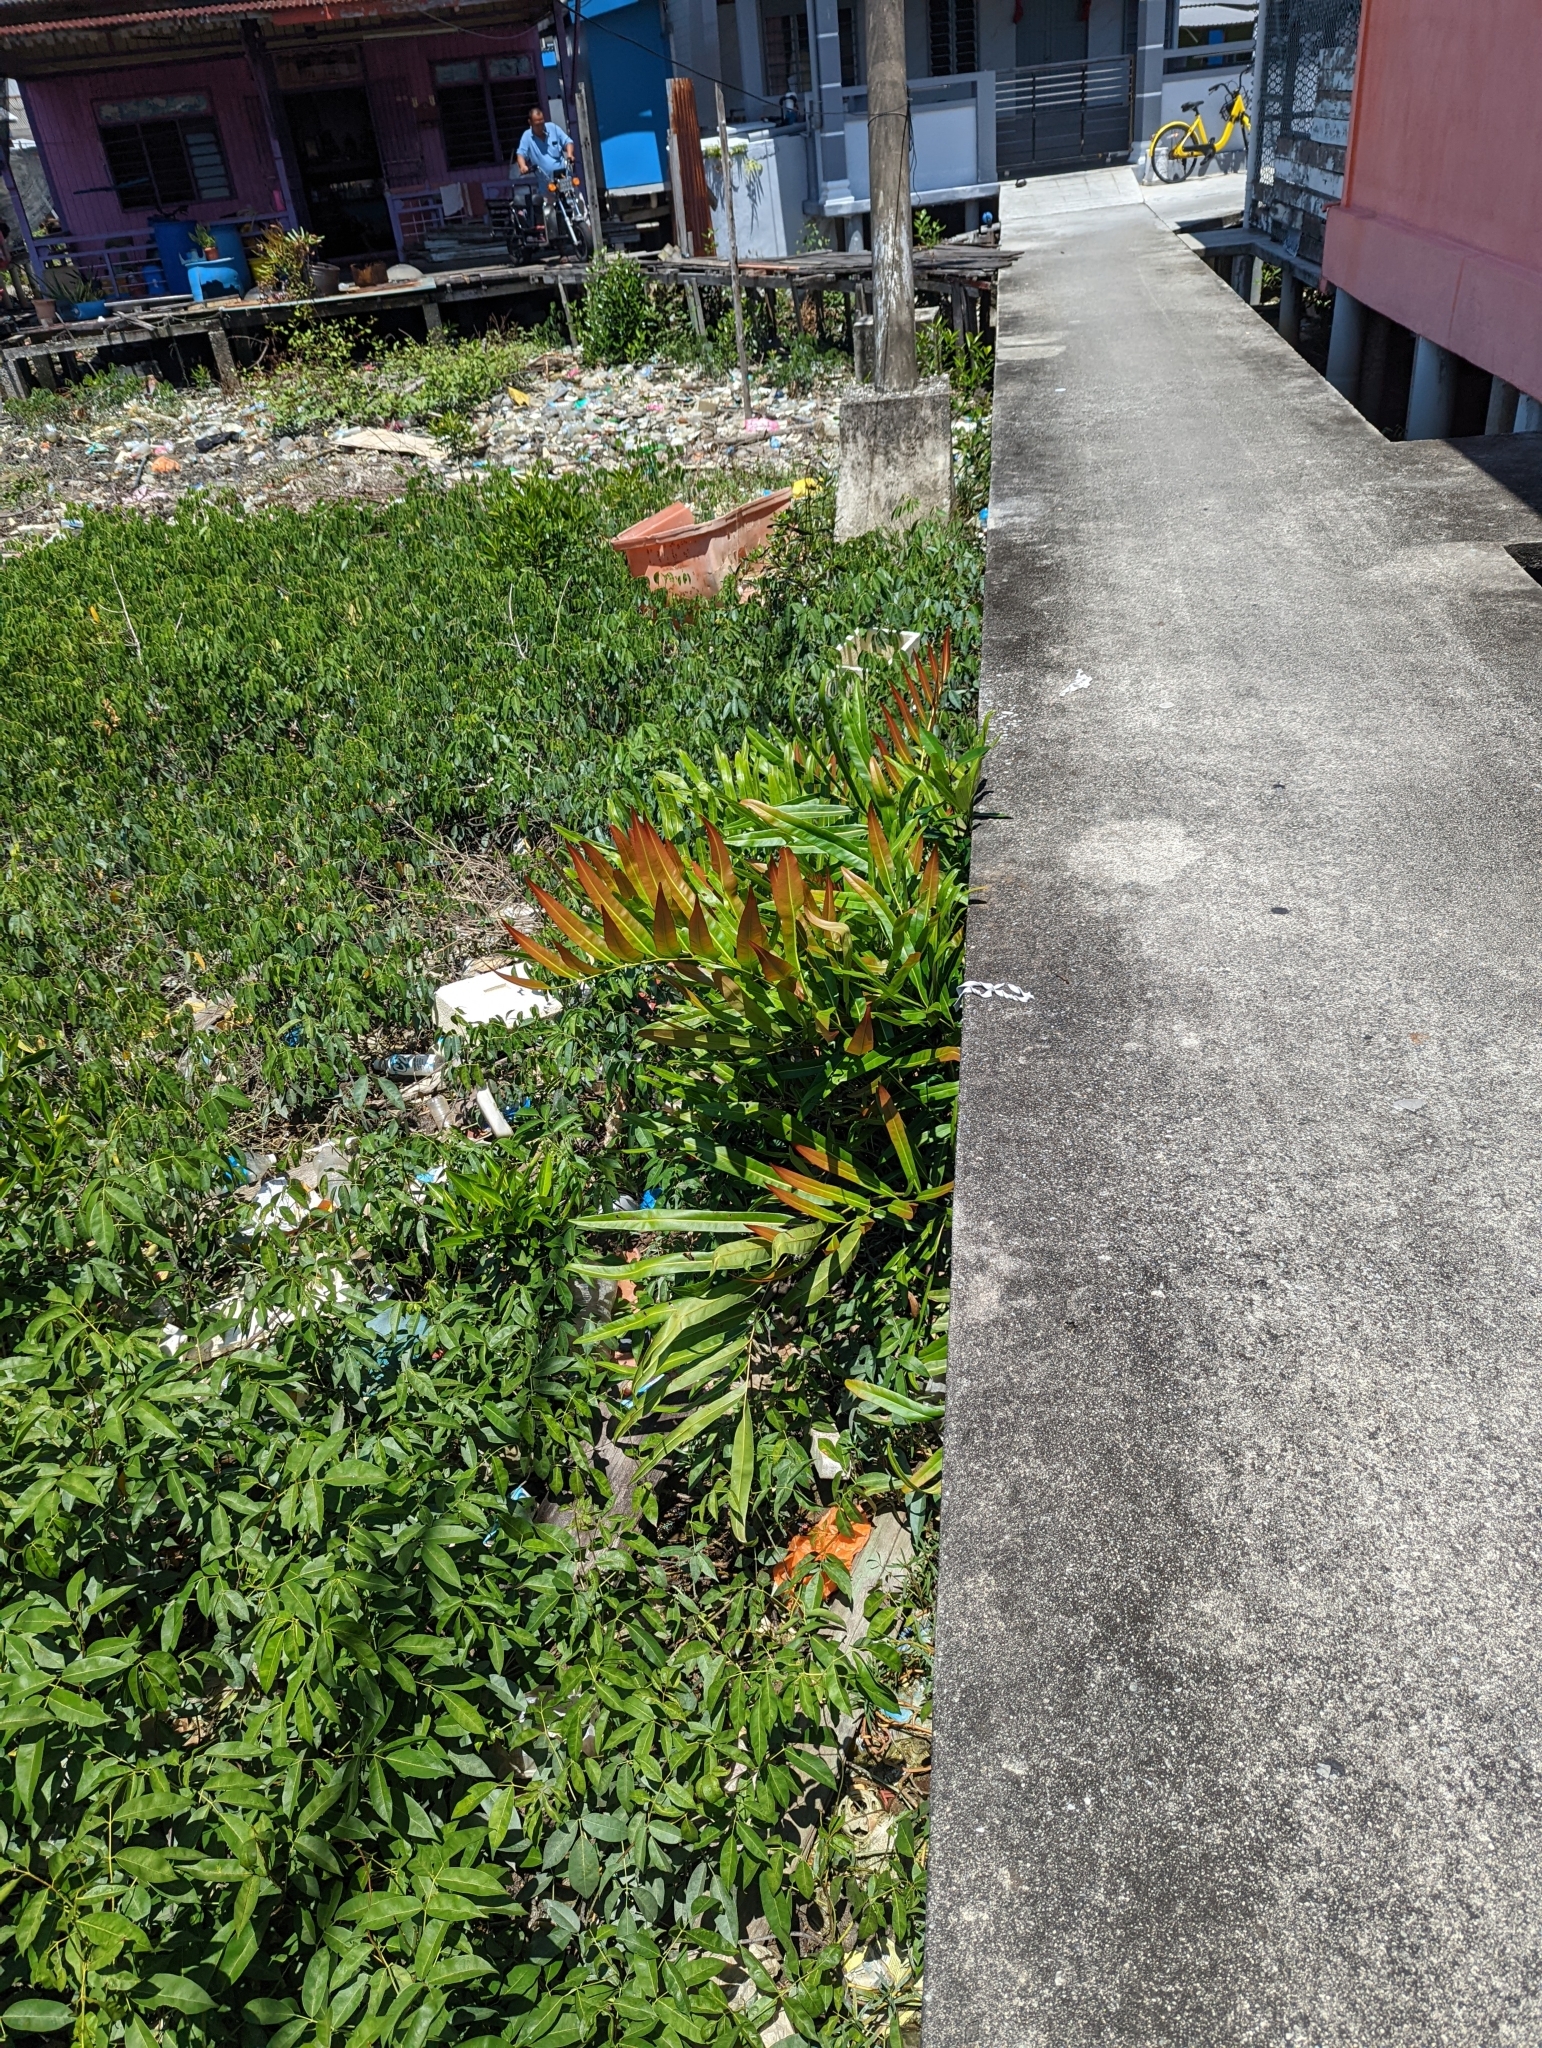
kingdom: Plantae
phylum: Tracheophyta
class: Polypodiopsida
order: Polypodiales
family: Pteridaceae
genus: Acrostichum
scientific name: Acrostichum aureum
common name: Leather fern
